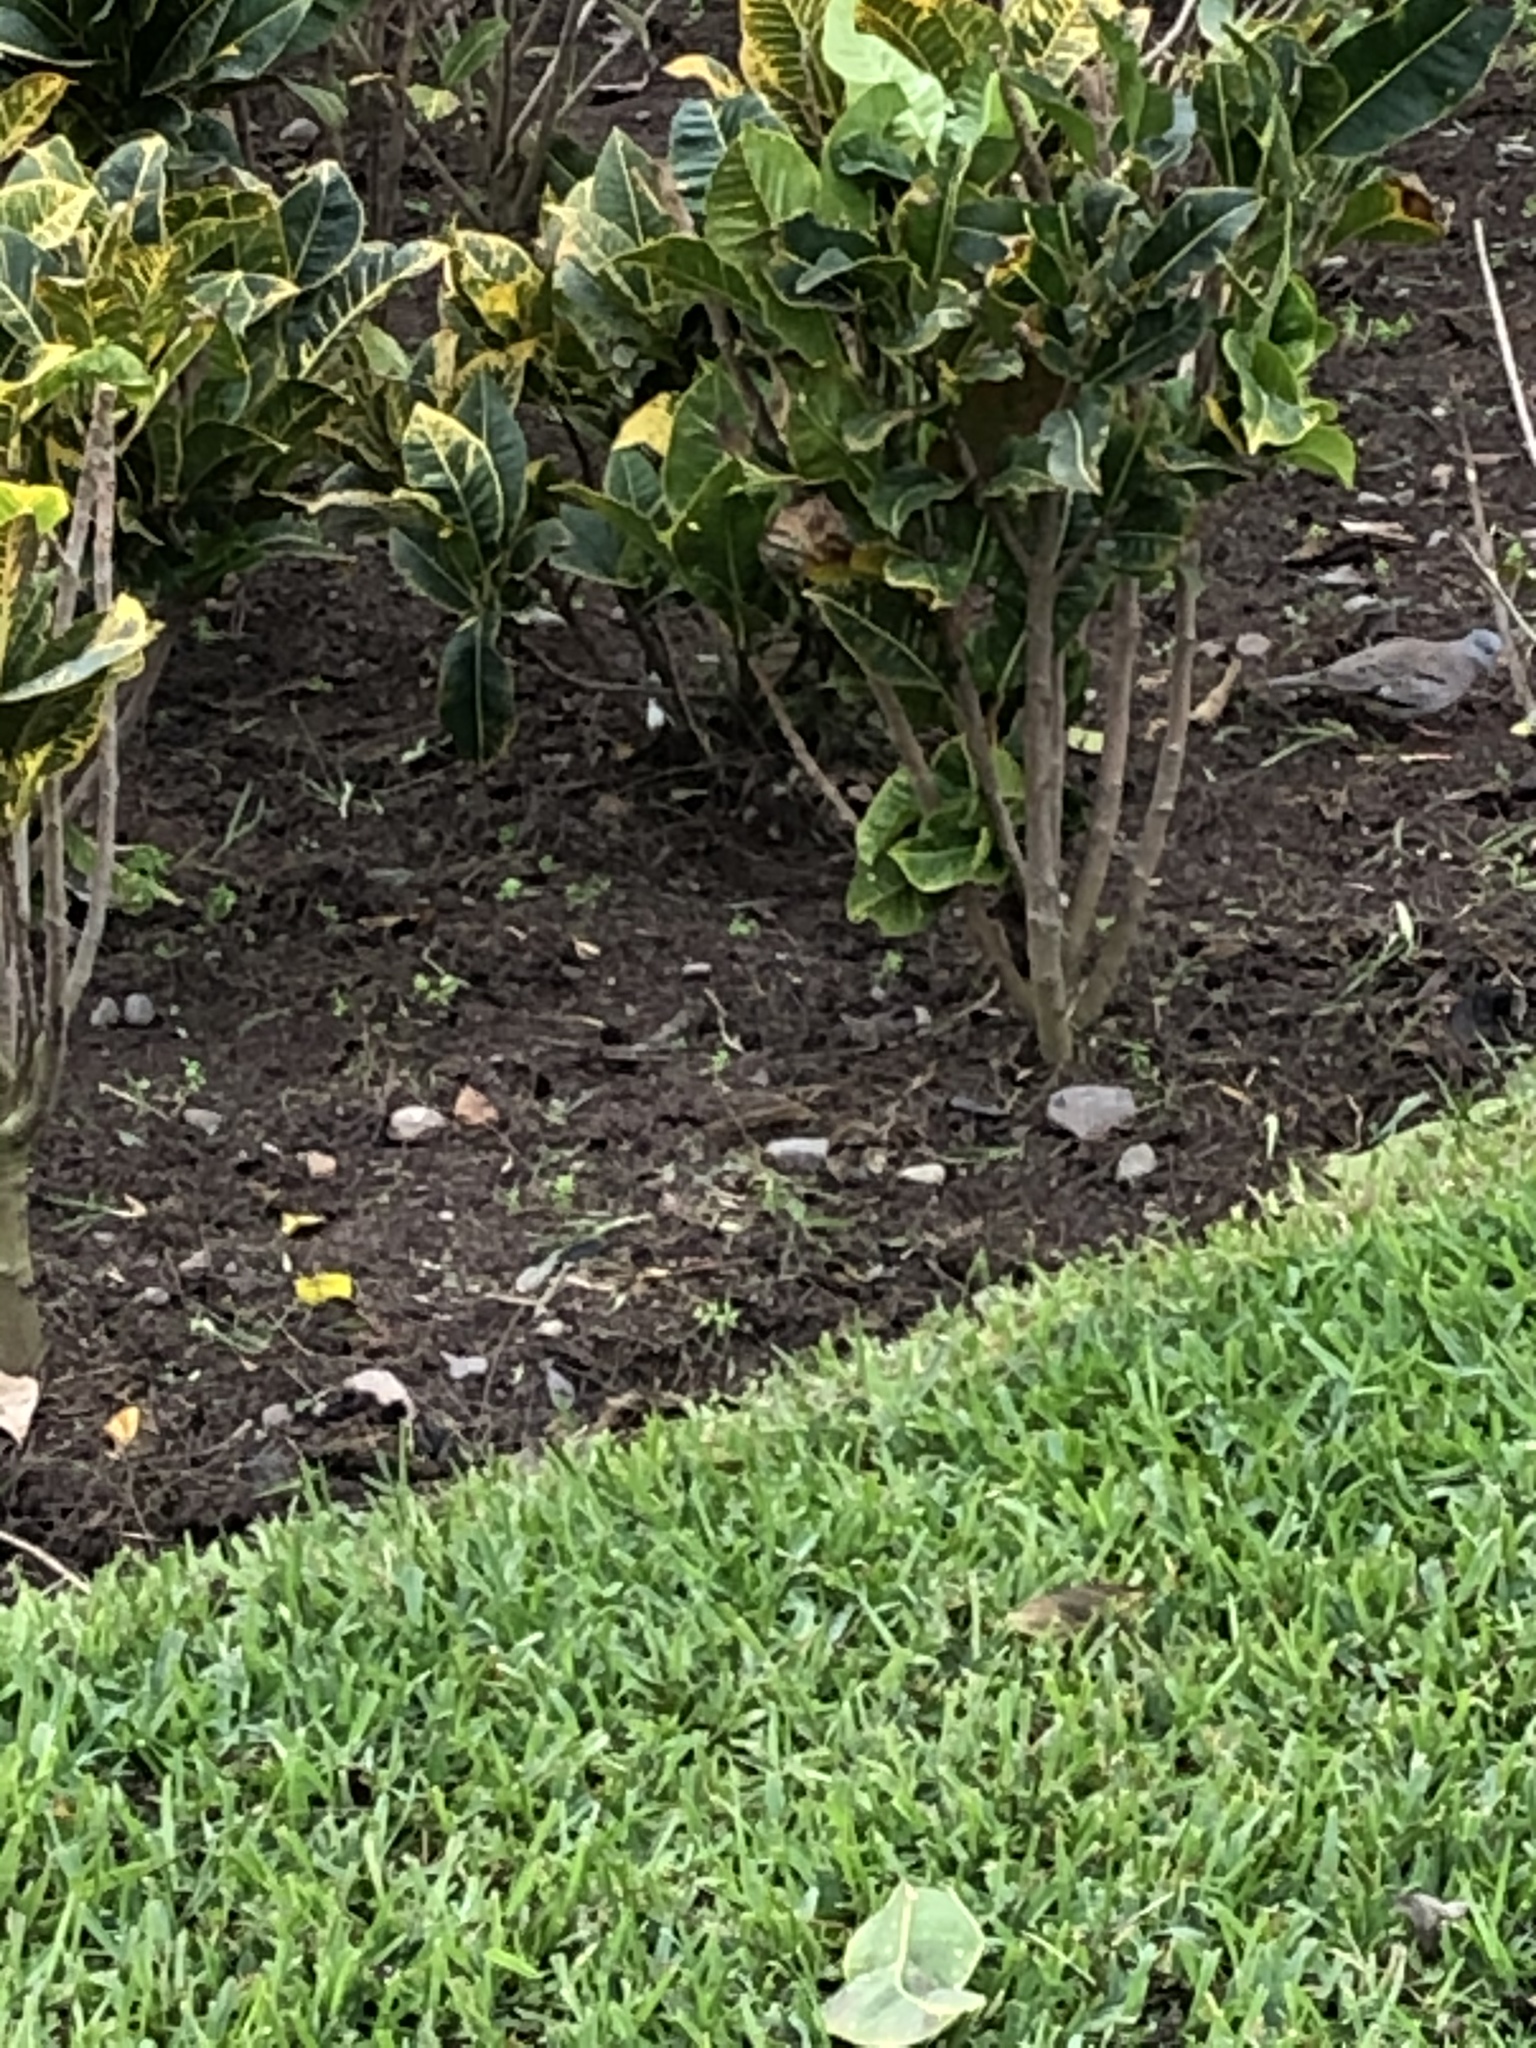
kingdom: Animalia
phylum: Chordata
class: Aves
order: Columbiformes
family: Columbidae
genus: Columbina
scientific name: Columbina cruziana
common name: Croaking ground dove
